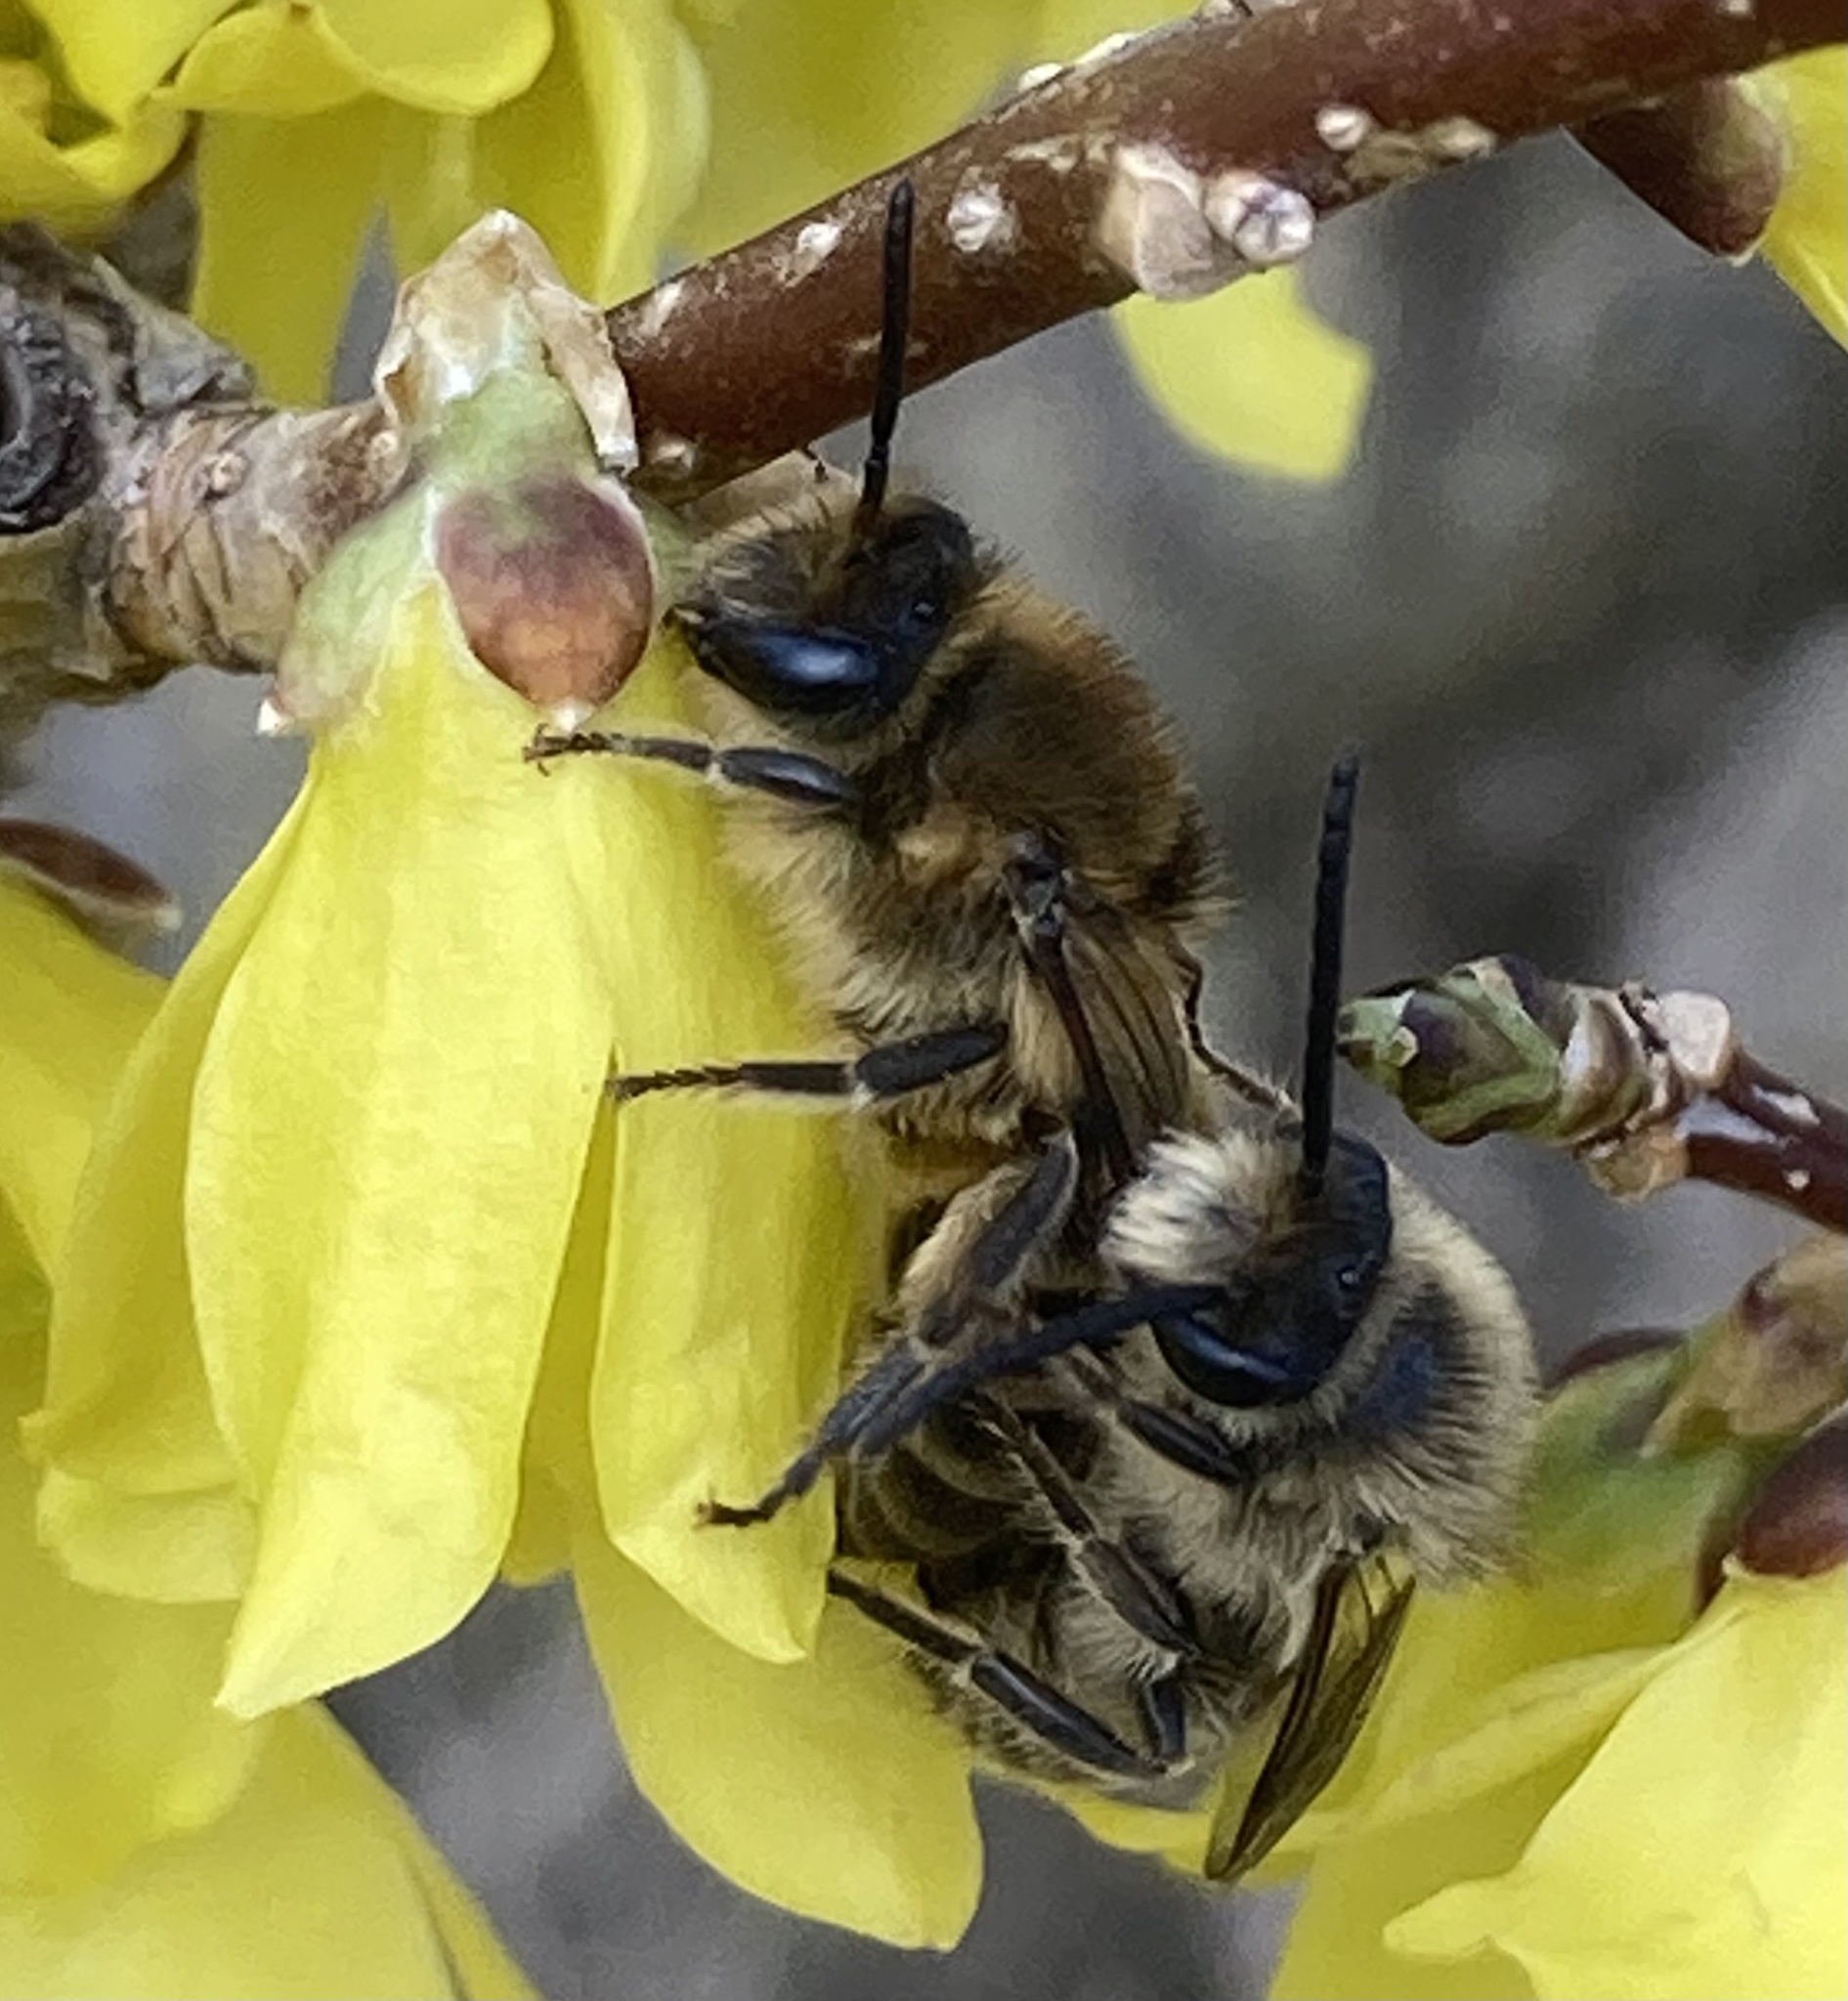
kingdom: Animalia
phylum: Arthropoda
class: Insecta
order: Hymenoptera
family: Colletidae
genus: Colletes
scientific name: Colletes inaequalis
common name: Unequal cellophane bee
